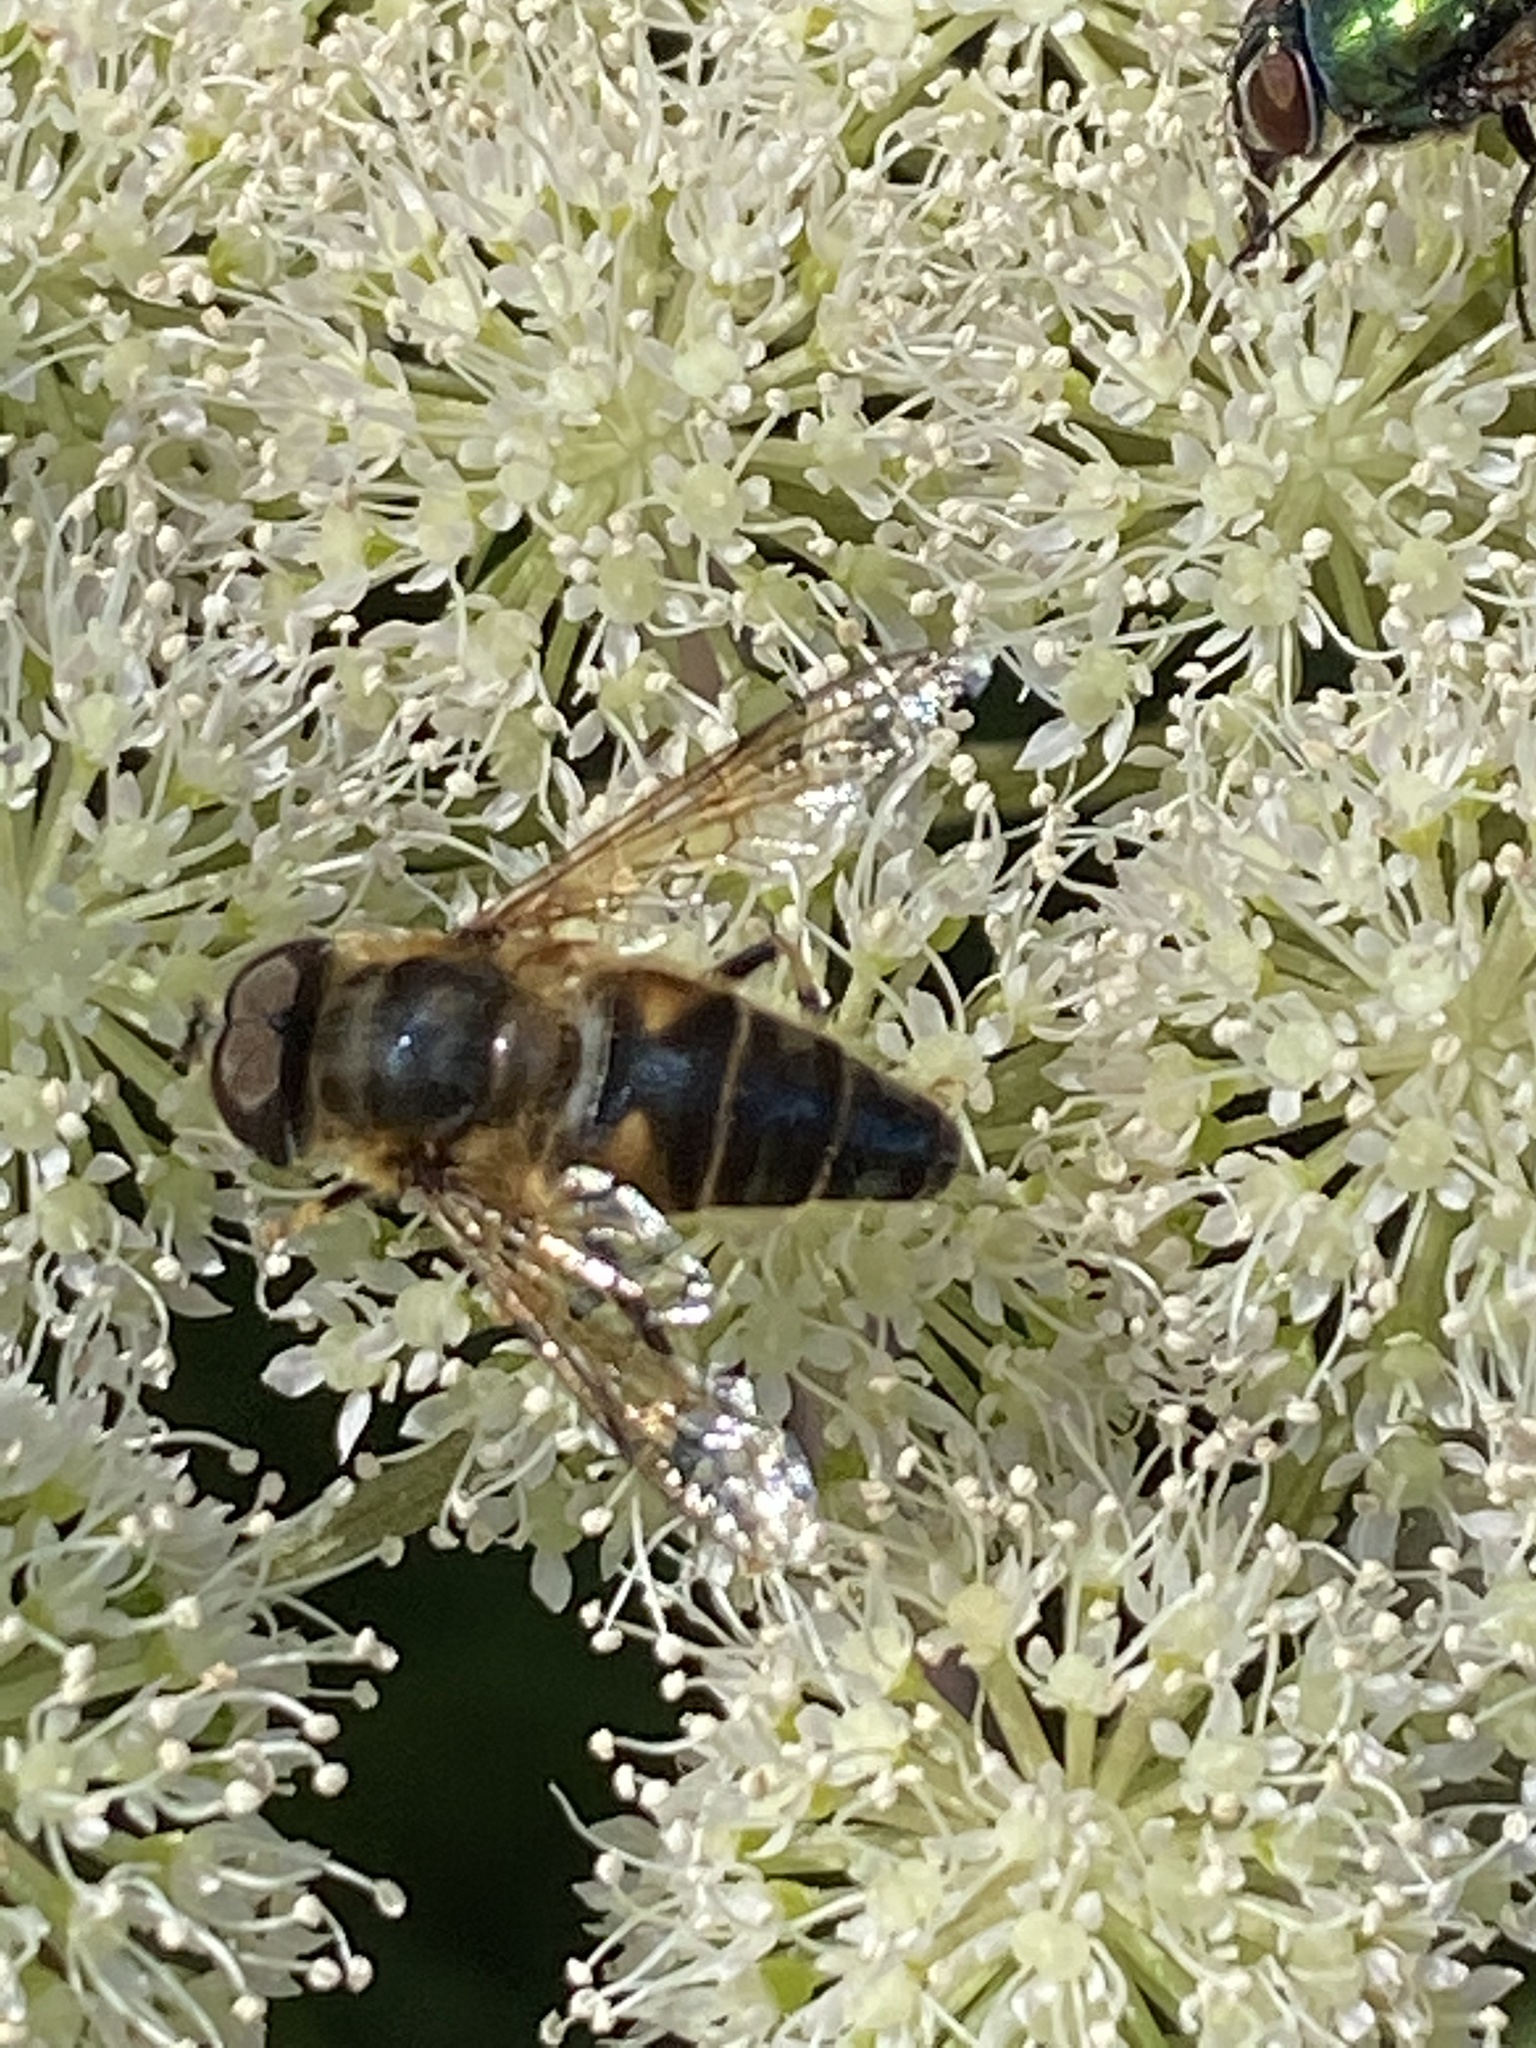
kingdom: Animalia
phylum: Arthropoda
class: Insecta
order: Diptera
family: Syrphidae
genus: Eristalis
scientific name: Eristalis pertinax
